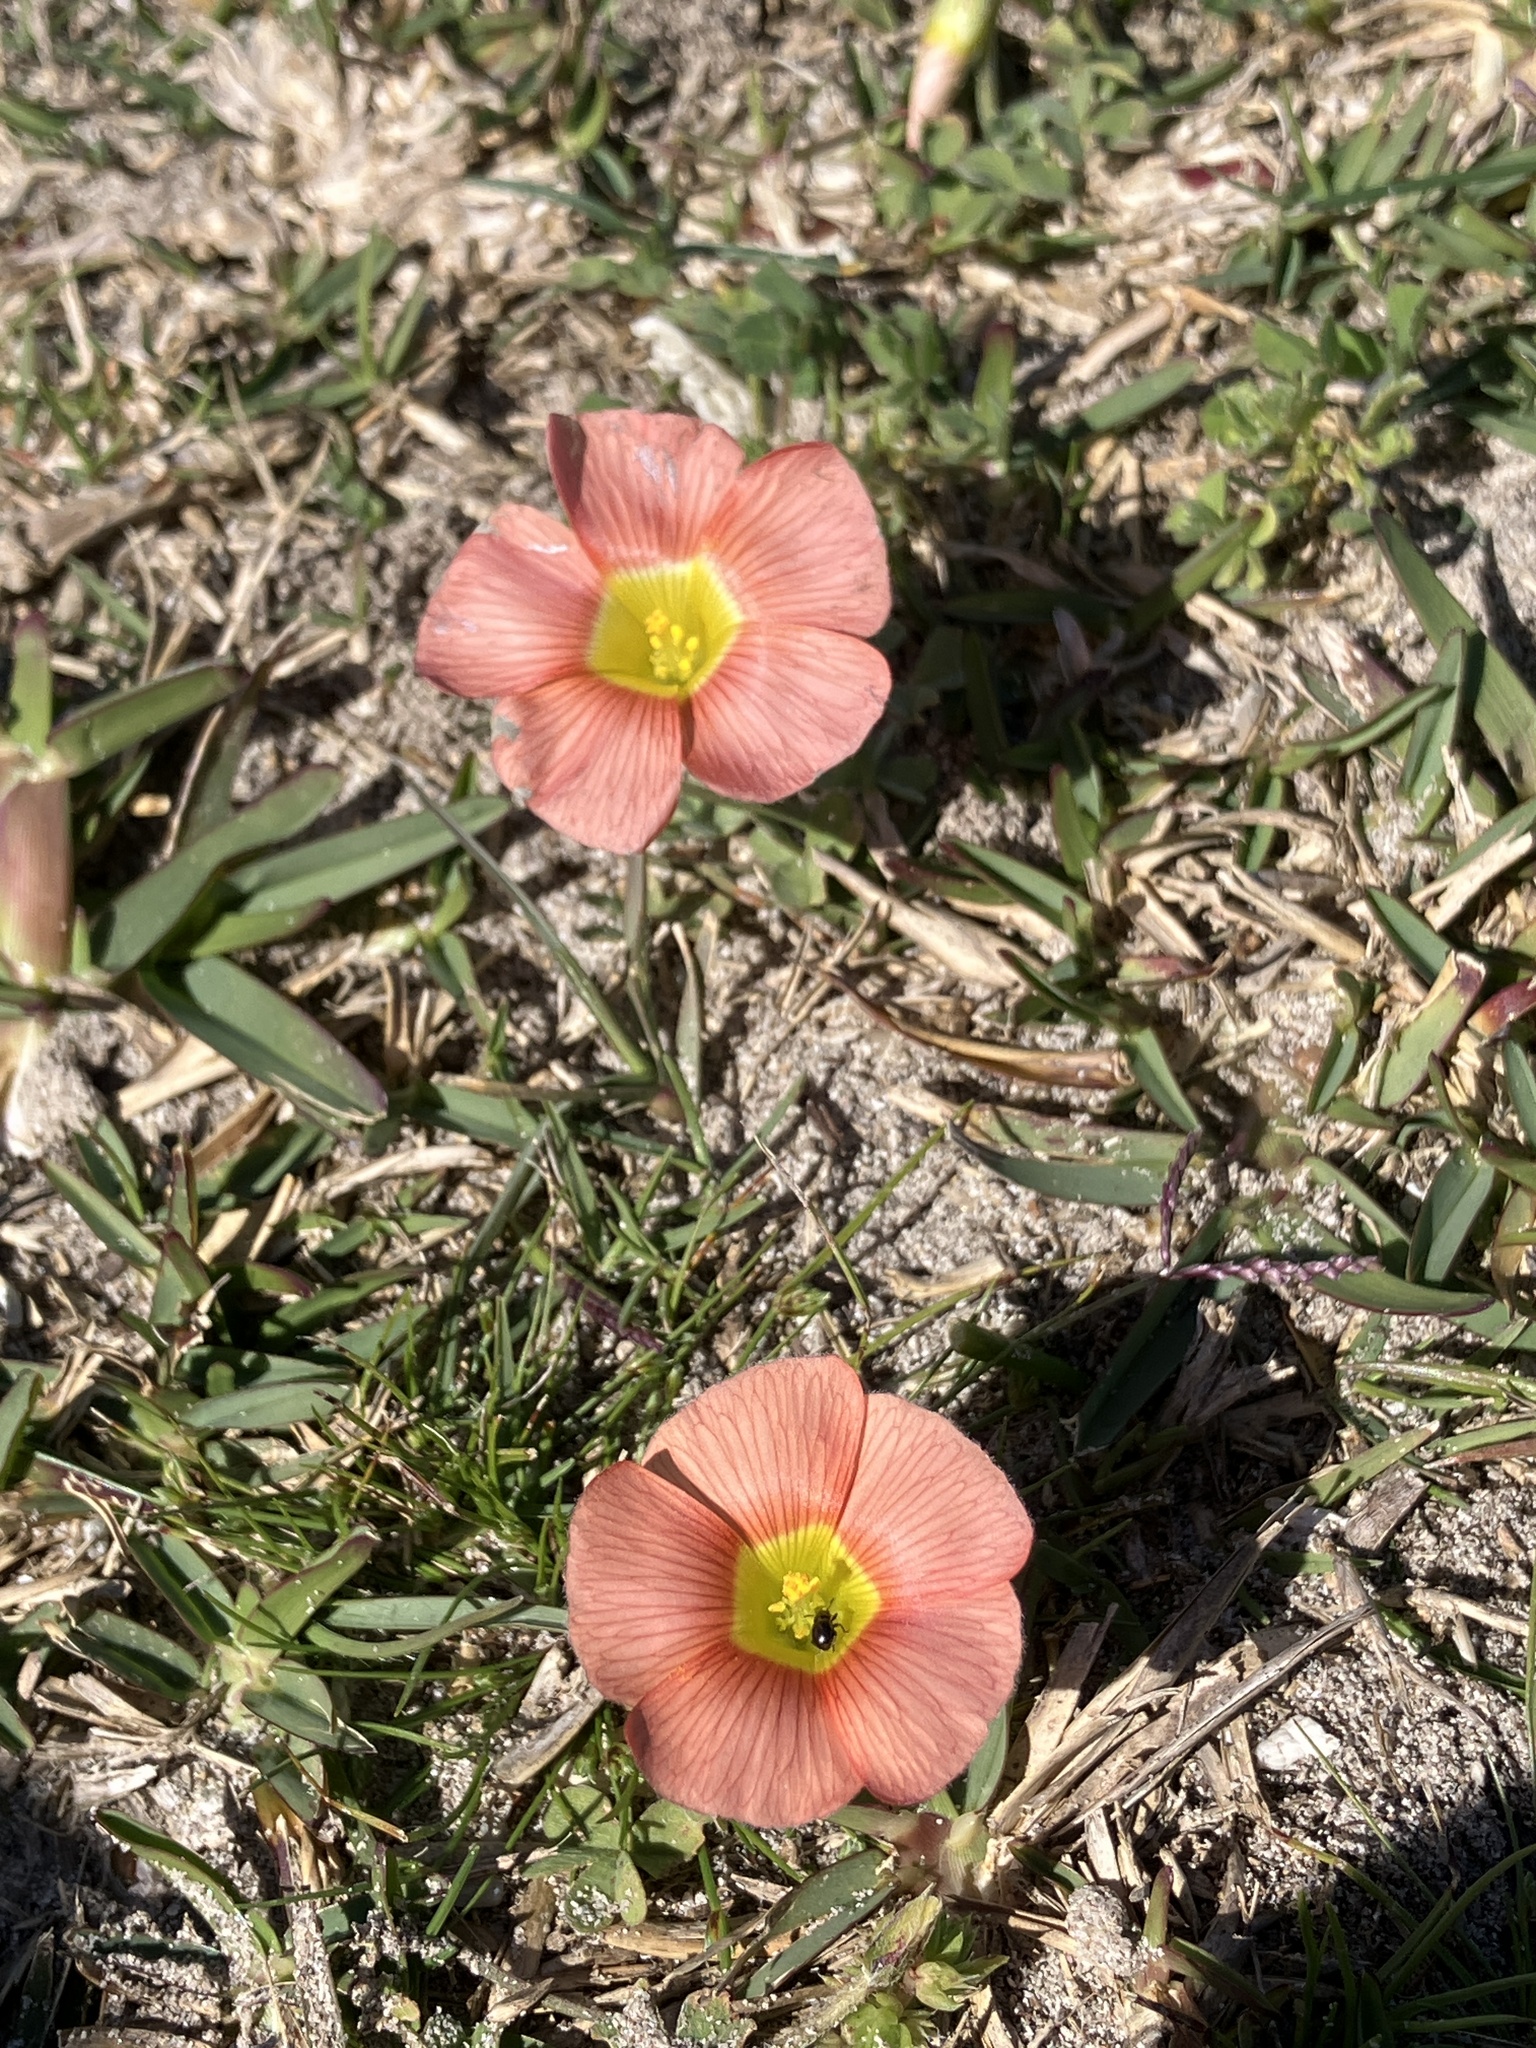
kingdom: Plantae
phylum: Tracheophyta
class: Magnoliopsida
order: Oxalidales
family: Oxalidaceae
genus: Oxalis
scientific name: Oxalis obtusa
